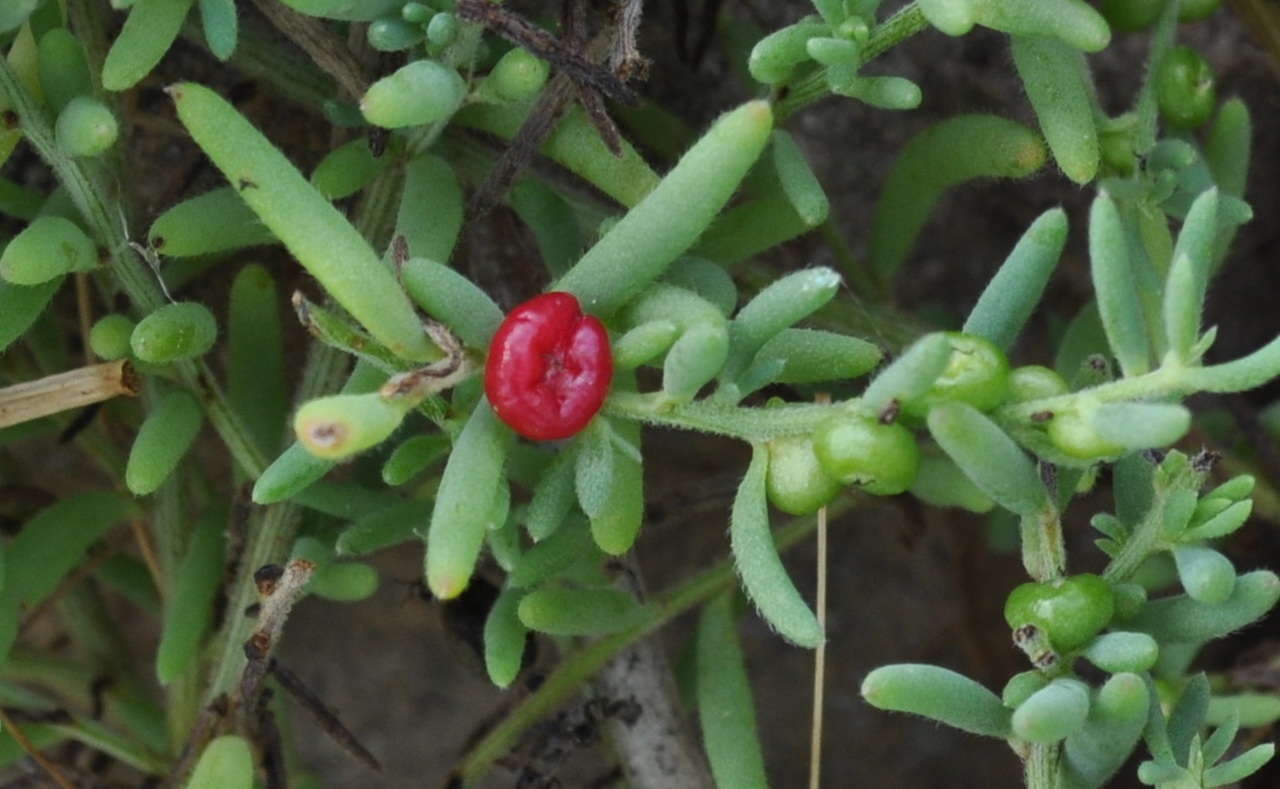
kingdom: Plantae
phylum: Tracheophyta
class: Magnoliopsida
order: Caryophyllales
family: Amaranthaceae
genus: Enchylaena
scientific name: Enchylaena tomentosa
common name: Ruby saltbush
